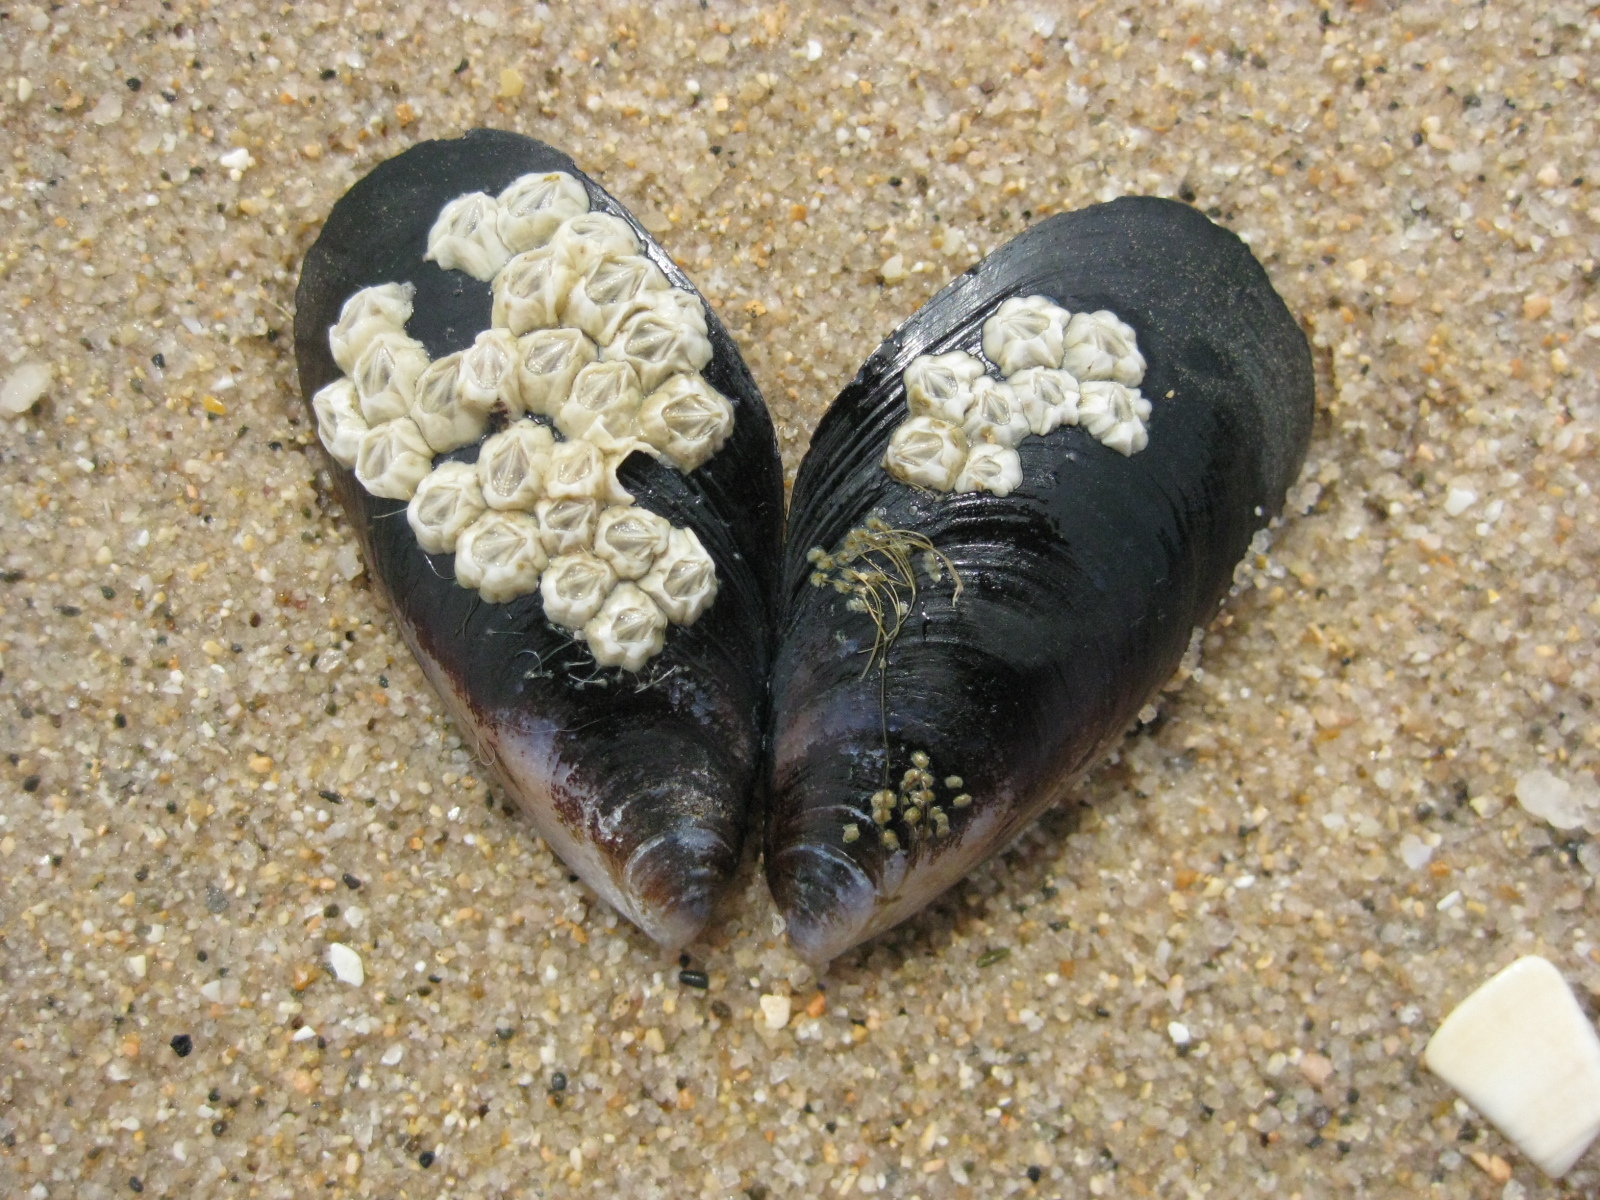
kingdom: Animalia
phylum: Mollusca
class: Bivalvia
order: Mytilida
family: Mytilidae
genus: Mytilus
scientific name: Mytilus planulatus
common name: Australian mussel
